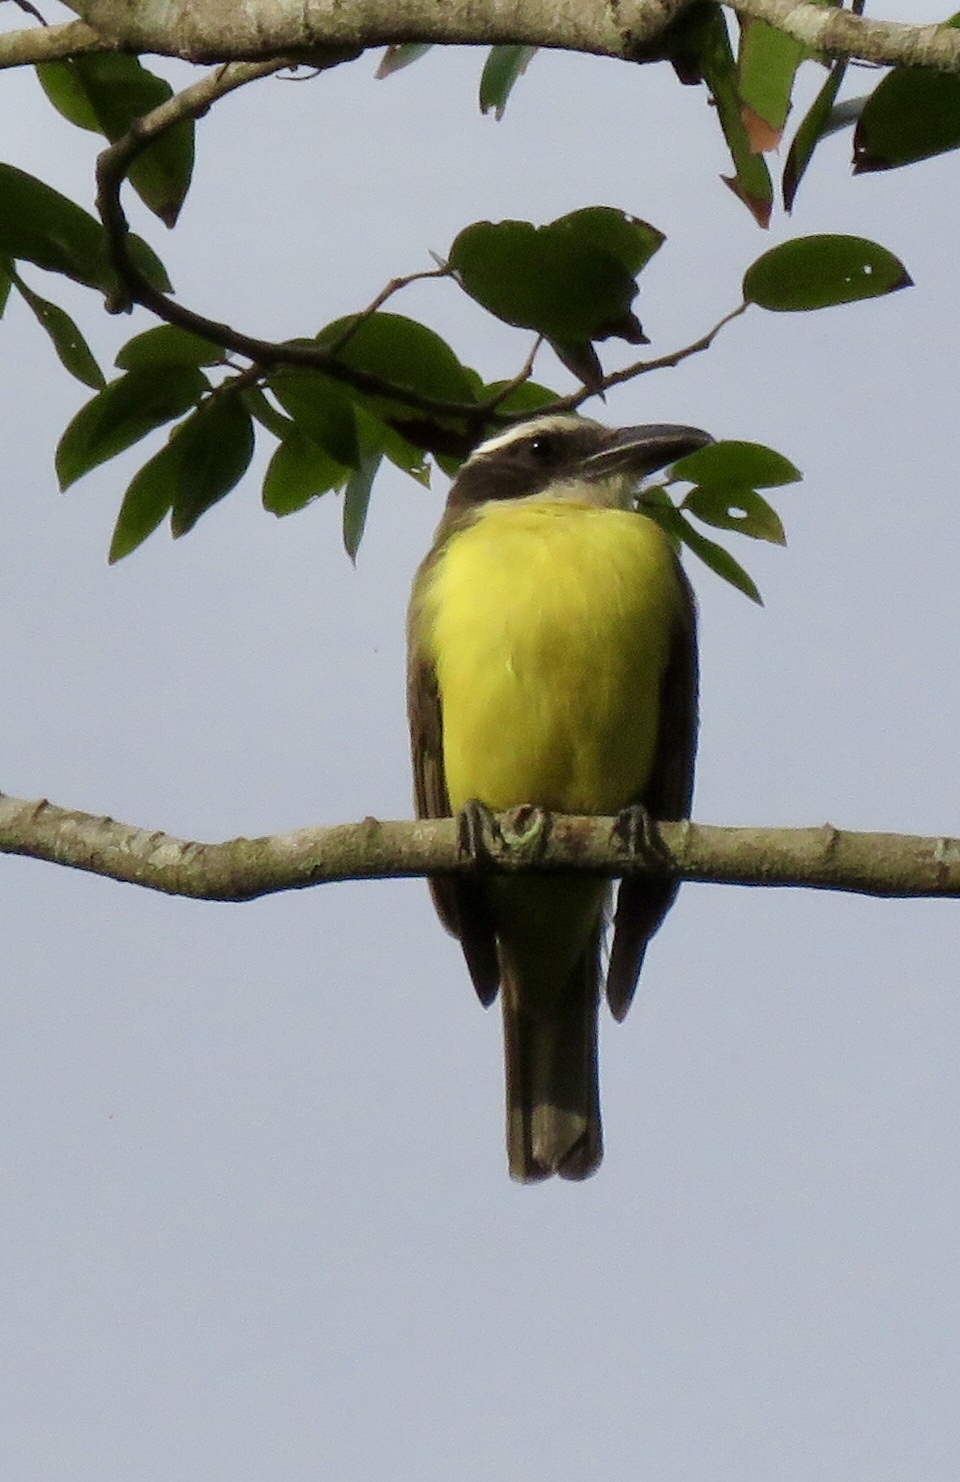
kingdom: Animalia
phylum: Chordata
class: Aves
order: Passeriformes
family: Tyrannidae
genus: Megarynchus
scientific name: Megarynchus pitangua
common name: Boat-billed flycatcher
